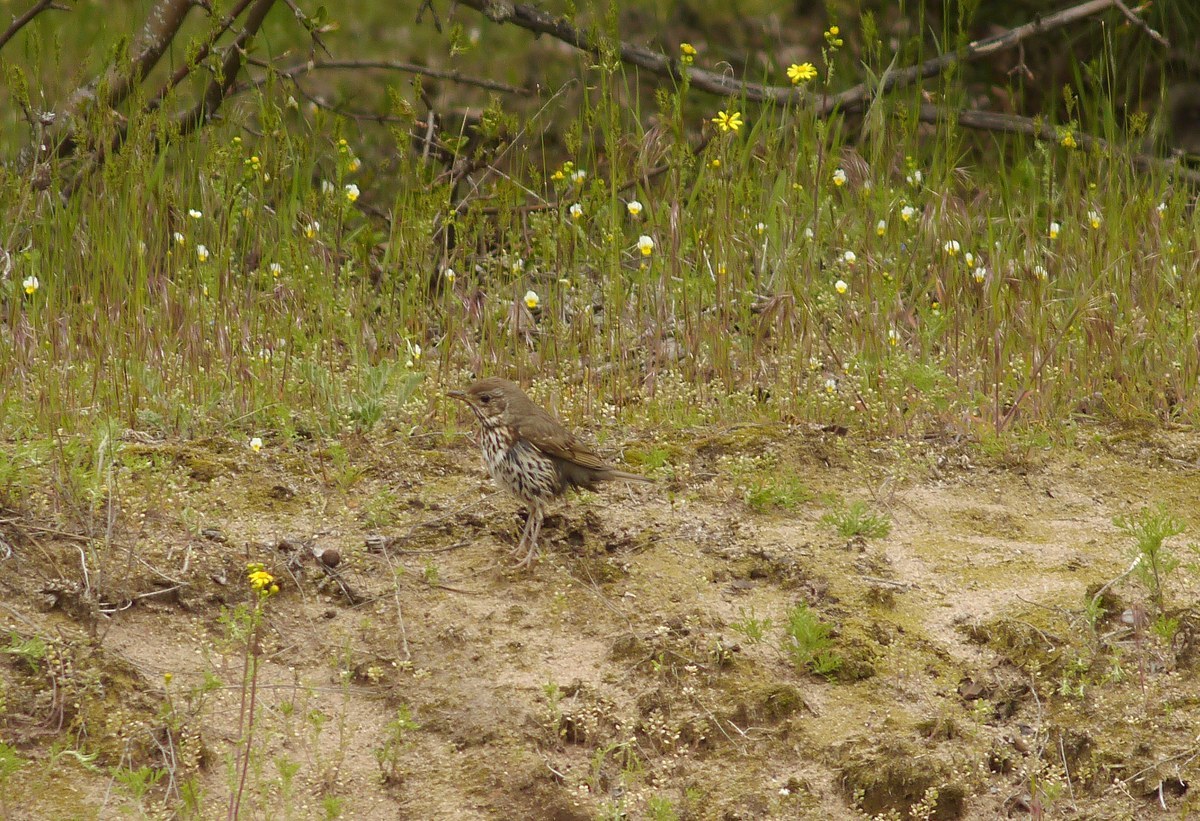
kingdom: Animalia
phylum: Chordata
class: Aves
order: Passeriformes
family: Turdidae
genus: Turdus
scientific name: Turdus philomelos
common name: Song thrush
